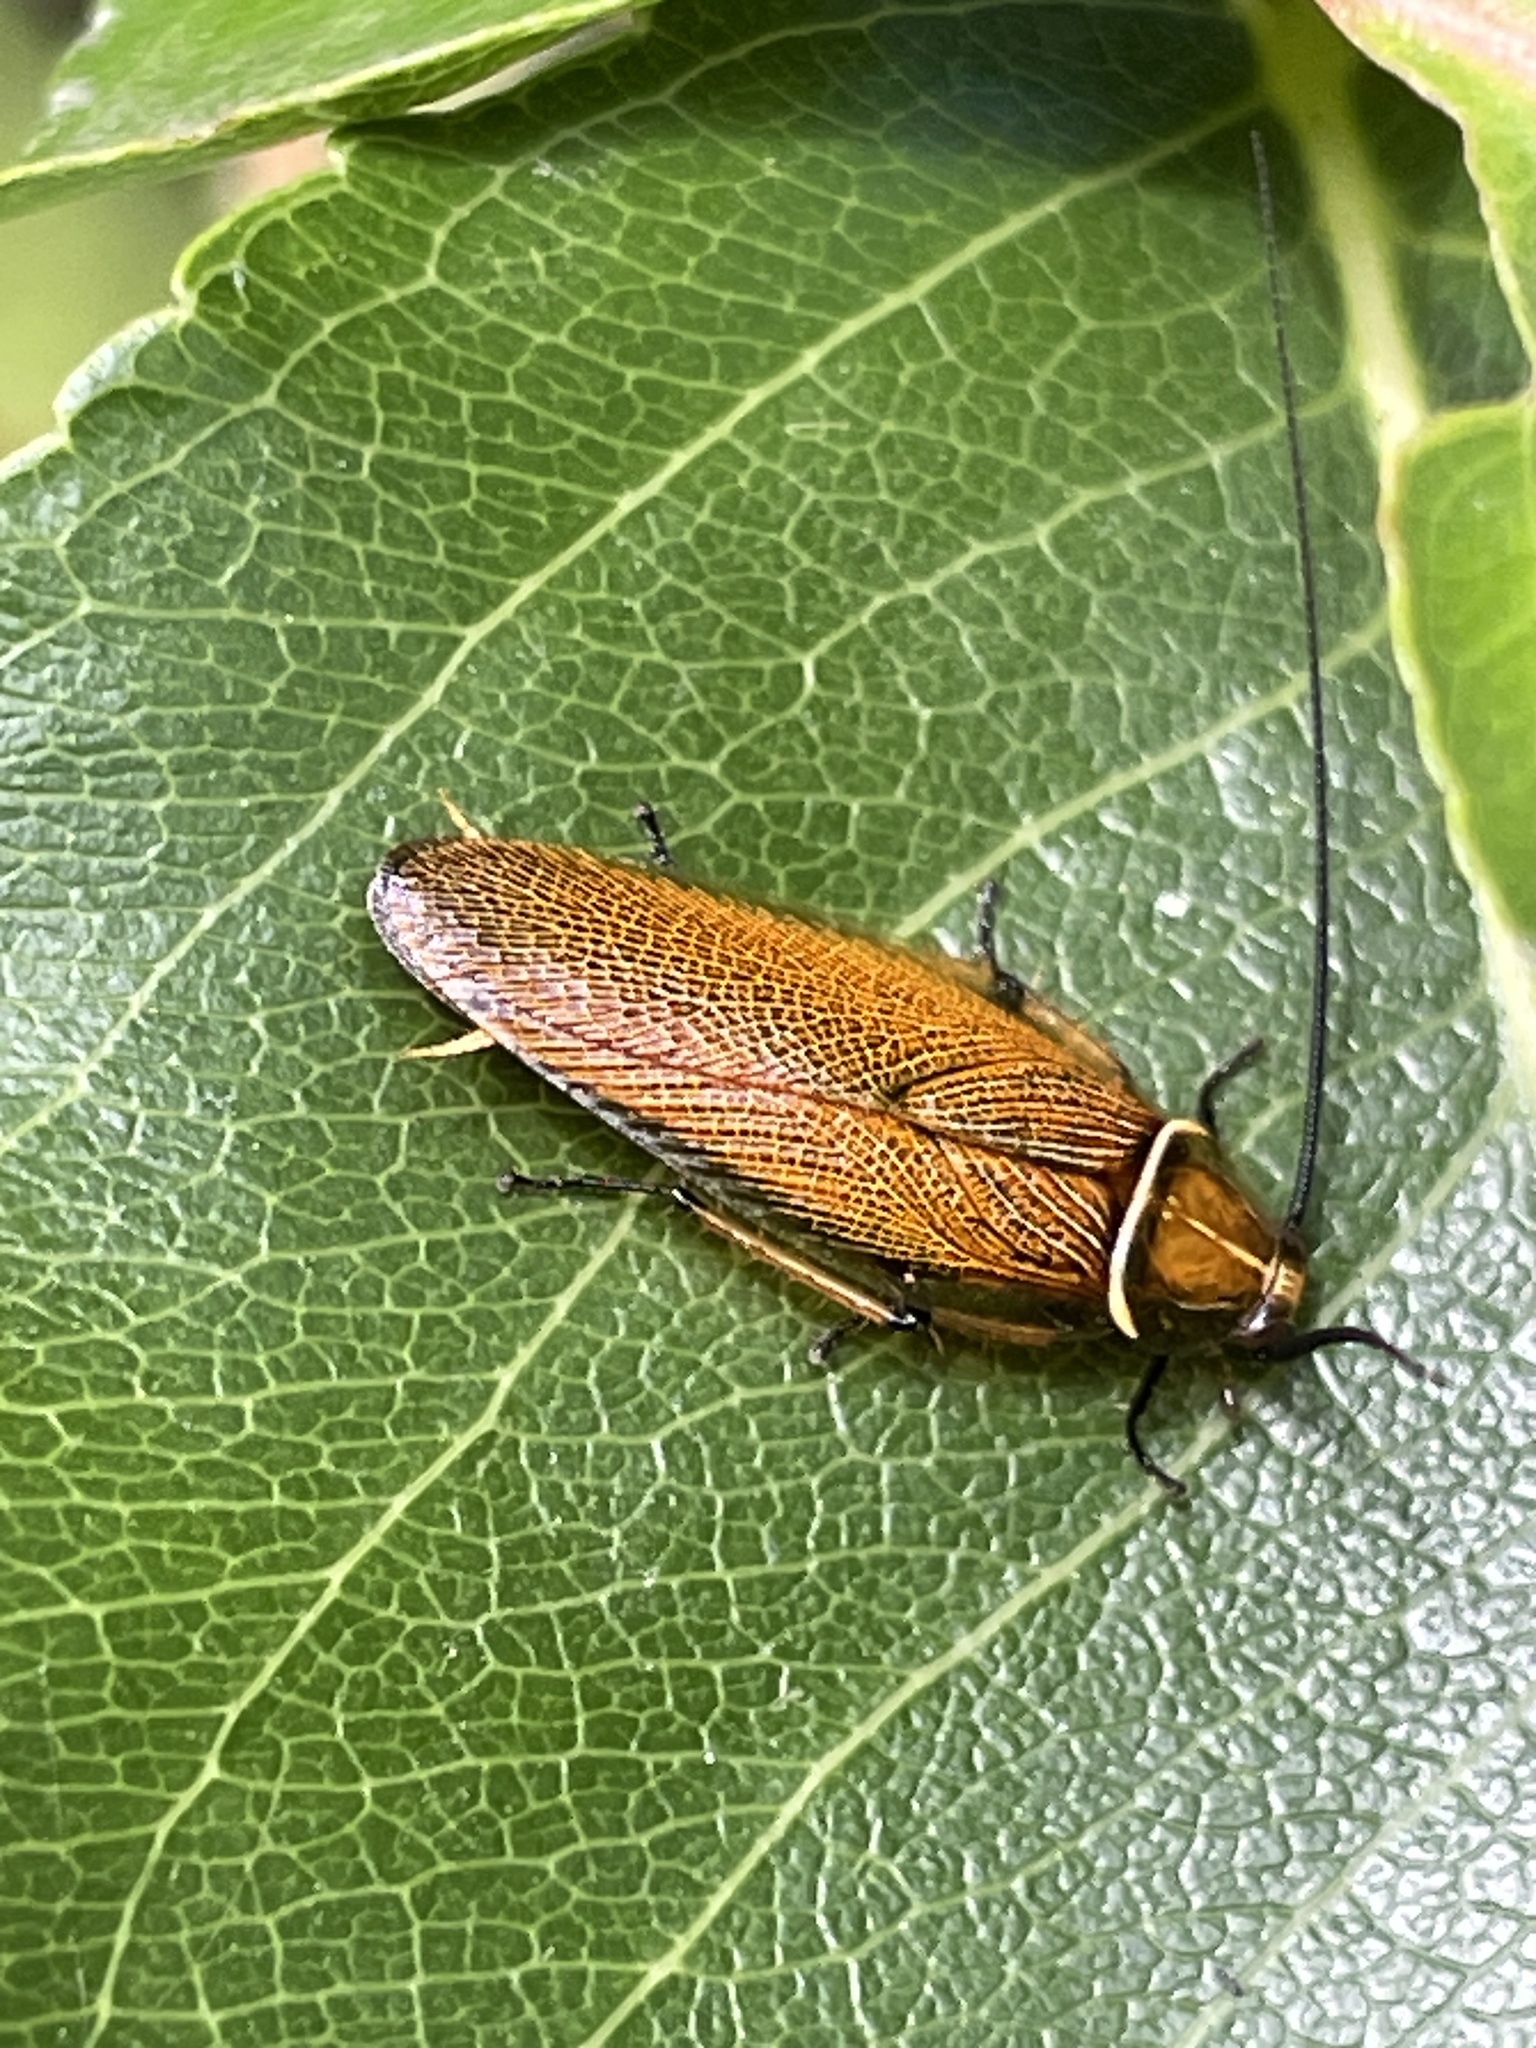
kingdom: Animalia
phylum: Arthropoda
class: Insecta
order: Blattodea
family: Ectobiidae
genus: Balta
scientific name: Balta bicolor
